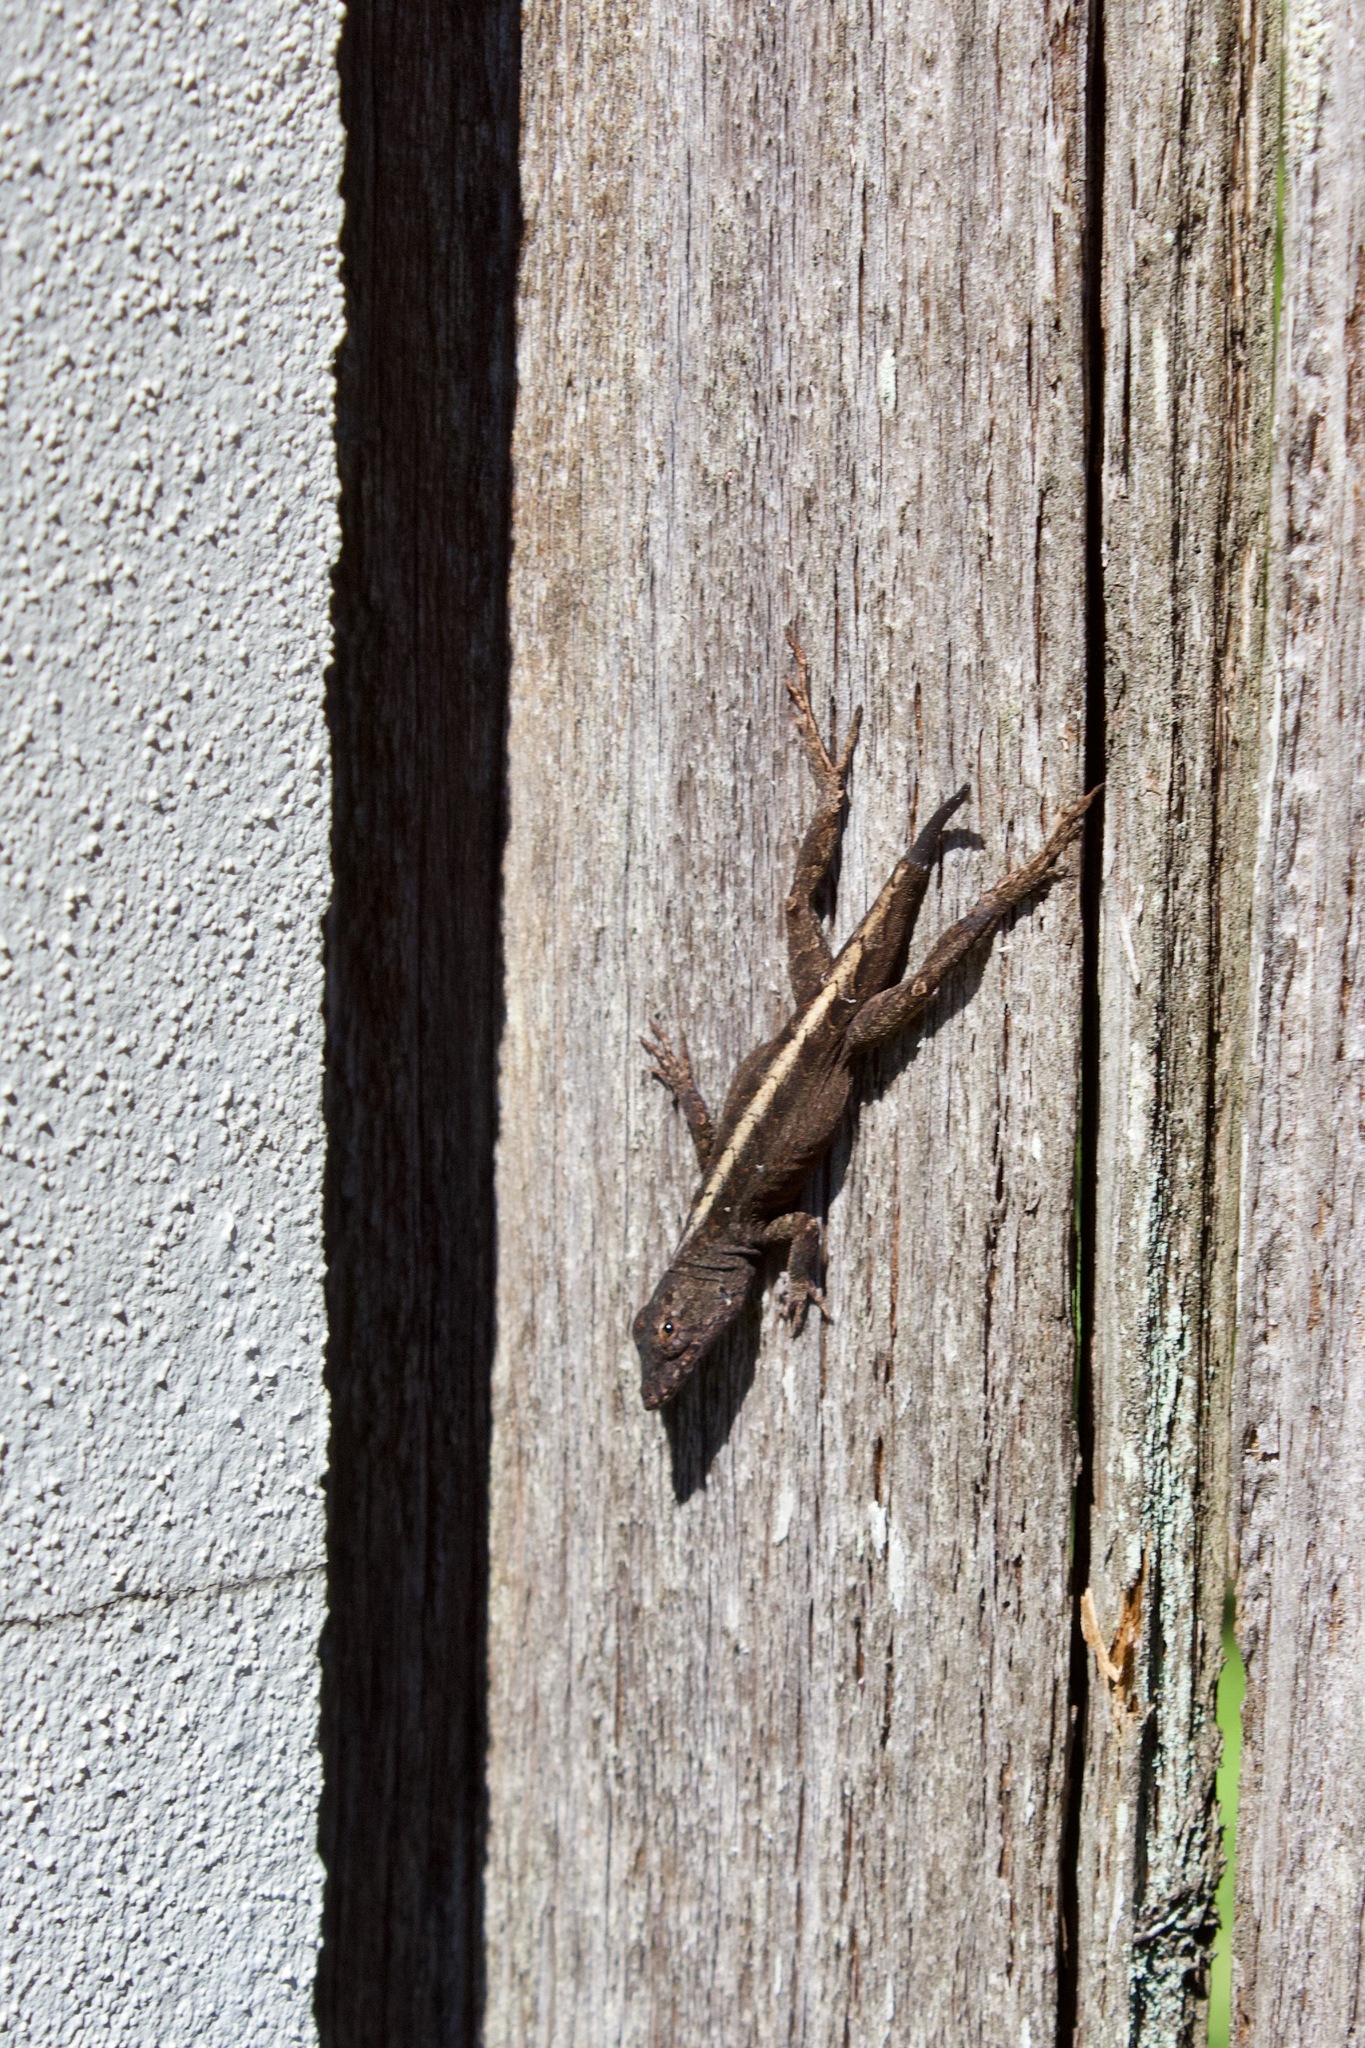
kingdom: Animalia
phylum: Chordata
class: Squamata
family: Dactyloidae
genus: Anolis
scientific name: Anolis sagrei
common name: Brown anole
